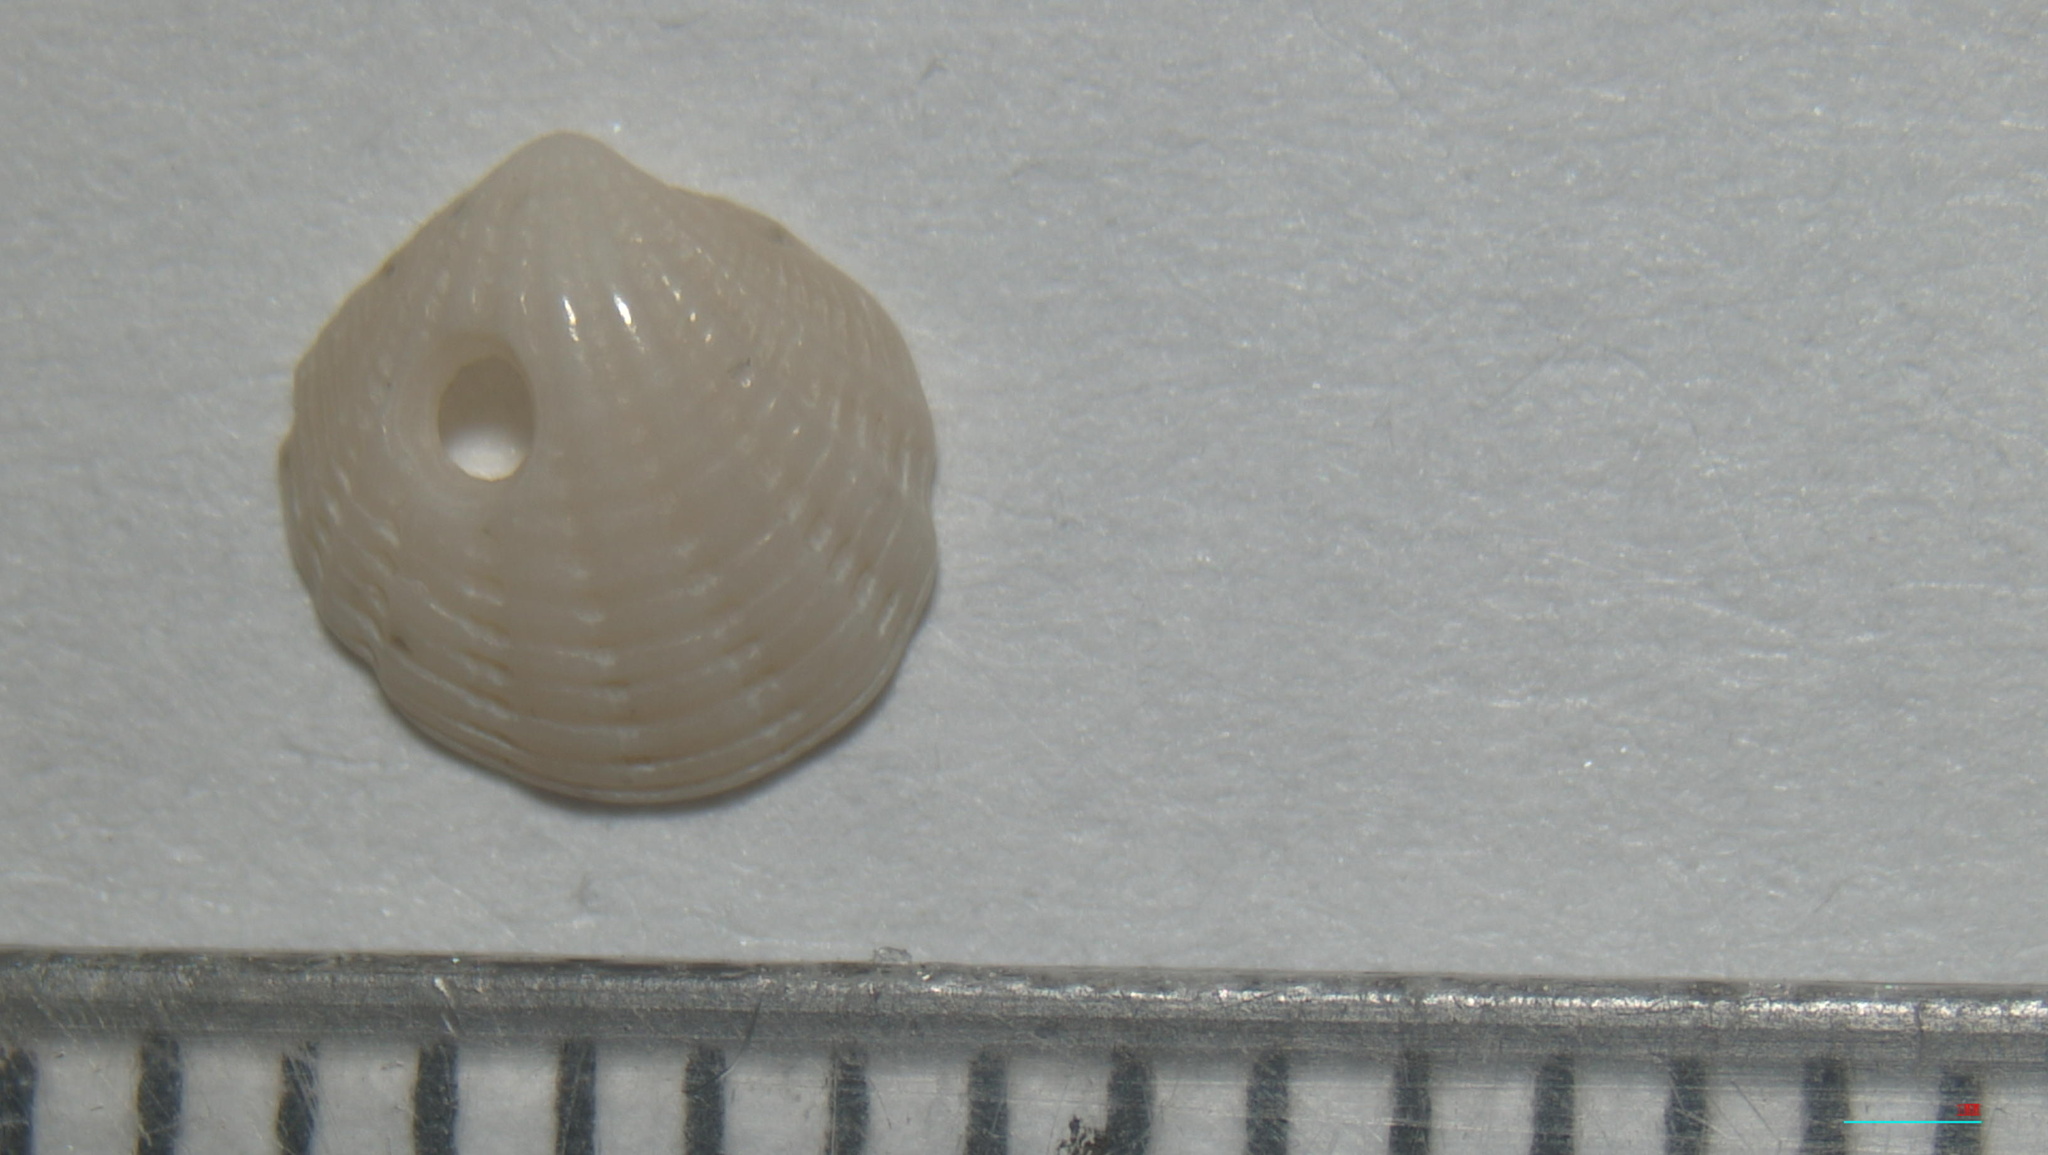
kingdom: Animalia
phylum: Mollusca
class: Bivalvia
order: Lucinida
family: Lucinidae
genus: Radiolucina
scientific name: Radiolucina amianta
